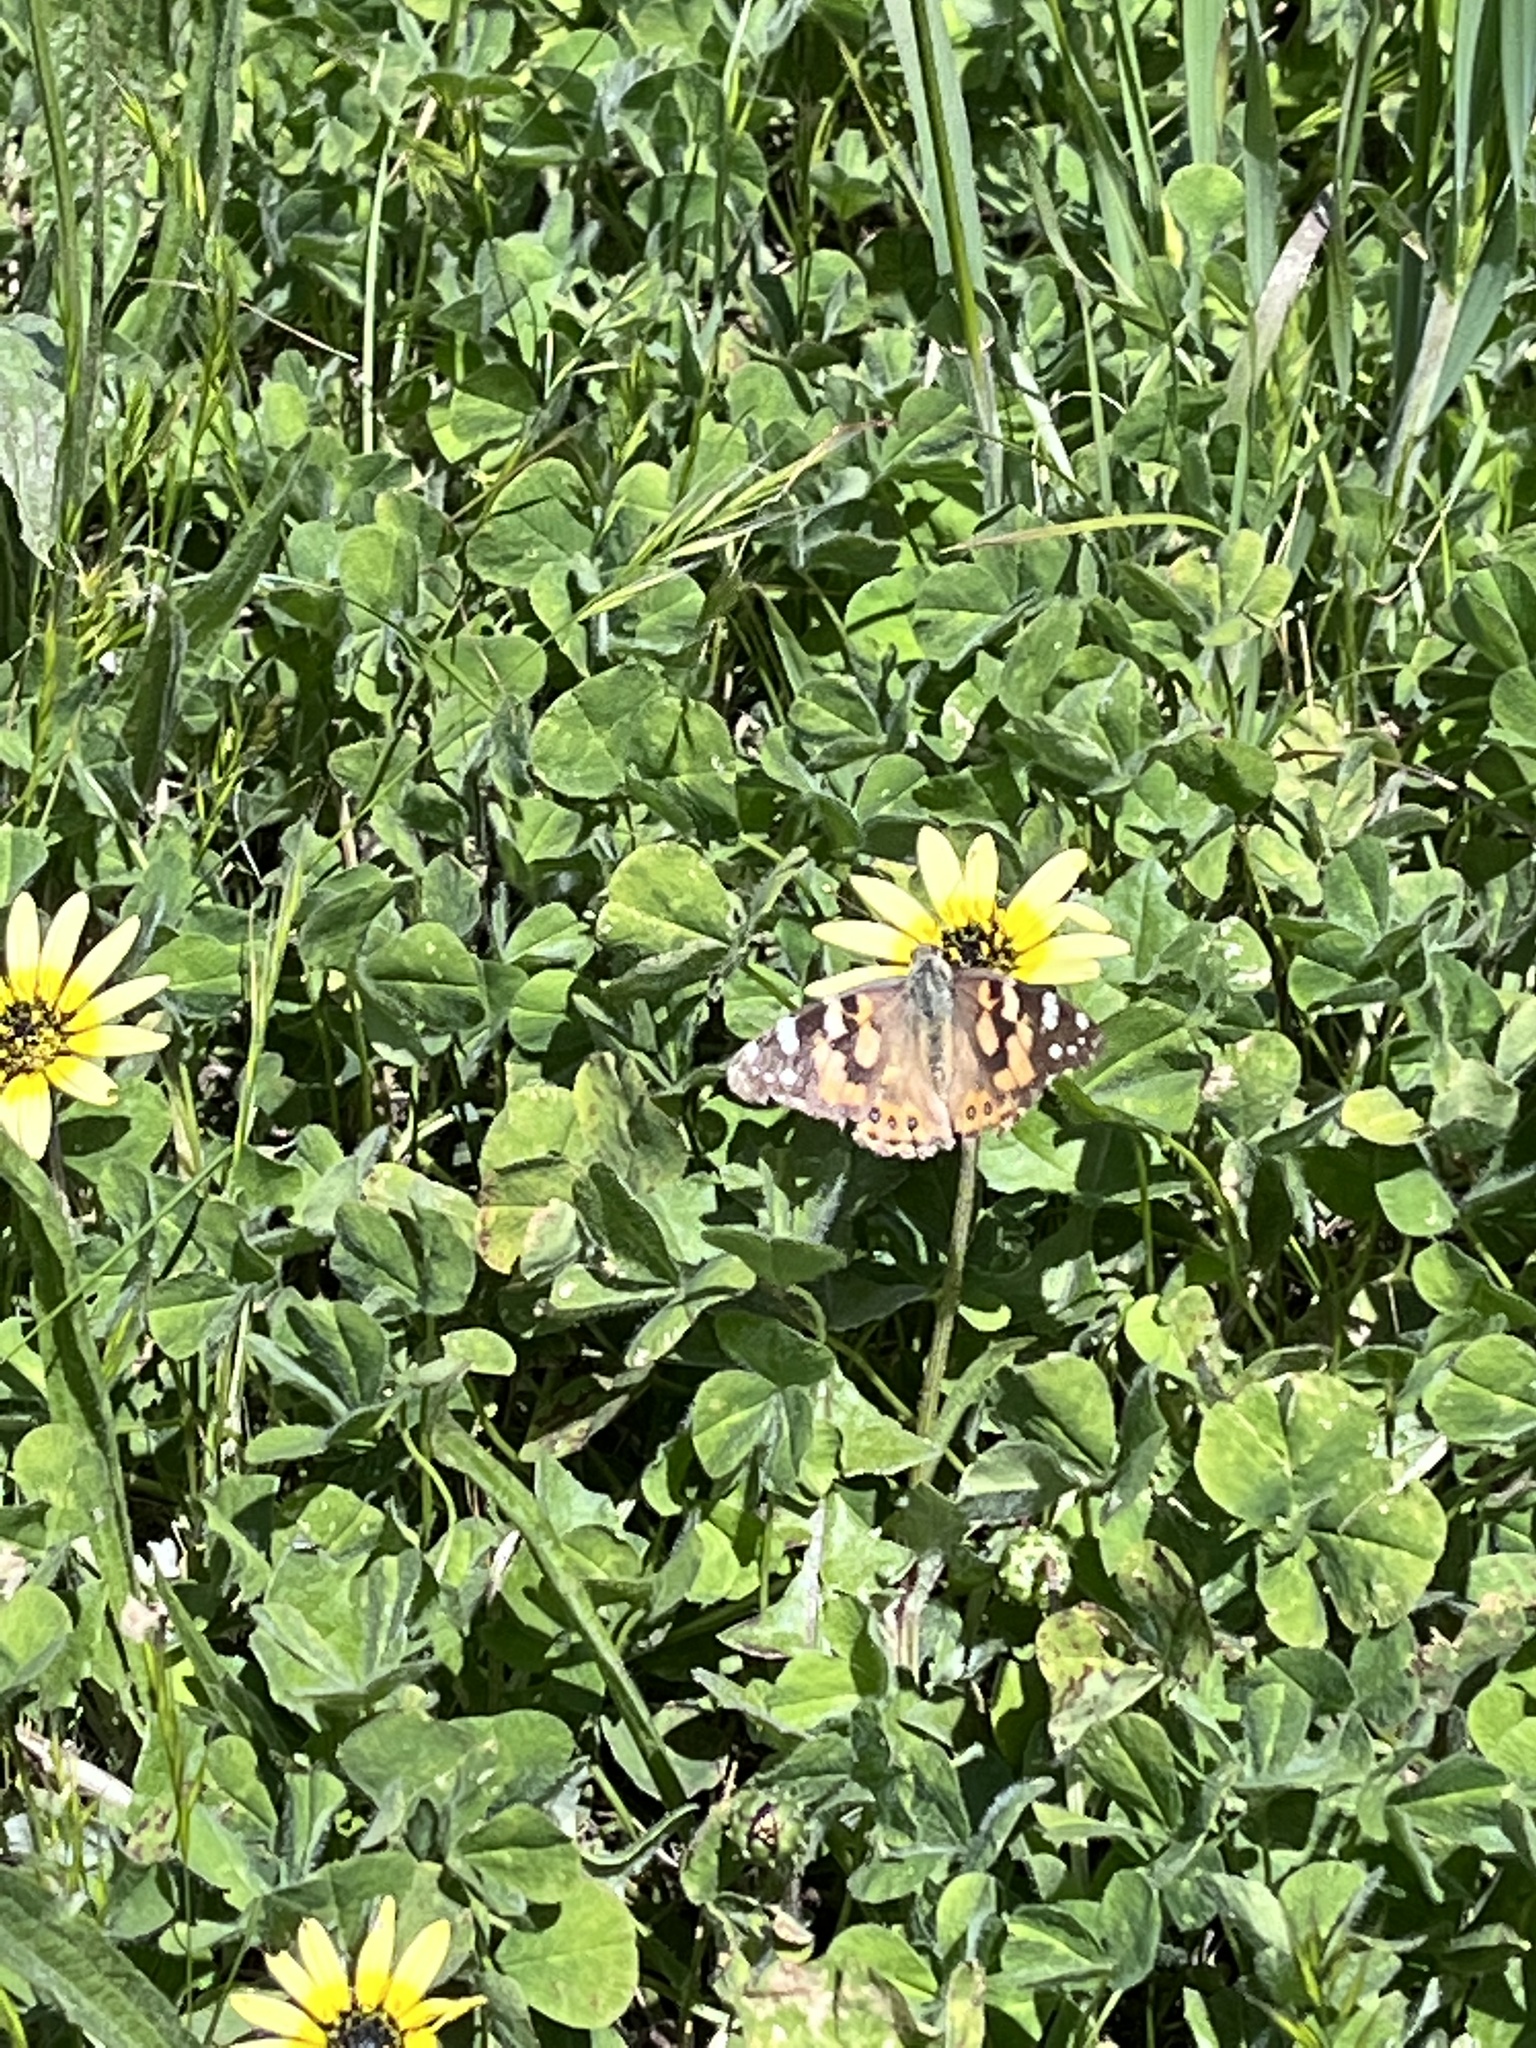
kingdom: Animalia
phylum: Arthropoda
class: Insecta
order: Lepidoptera
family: Nymphalidae
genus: Vanessa
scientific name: Vanessa kershawi
